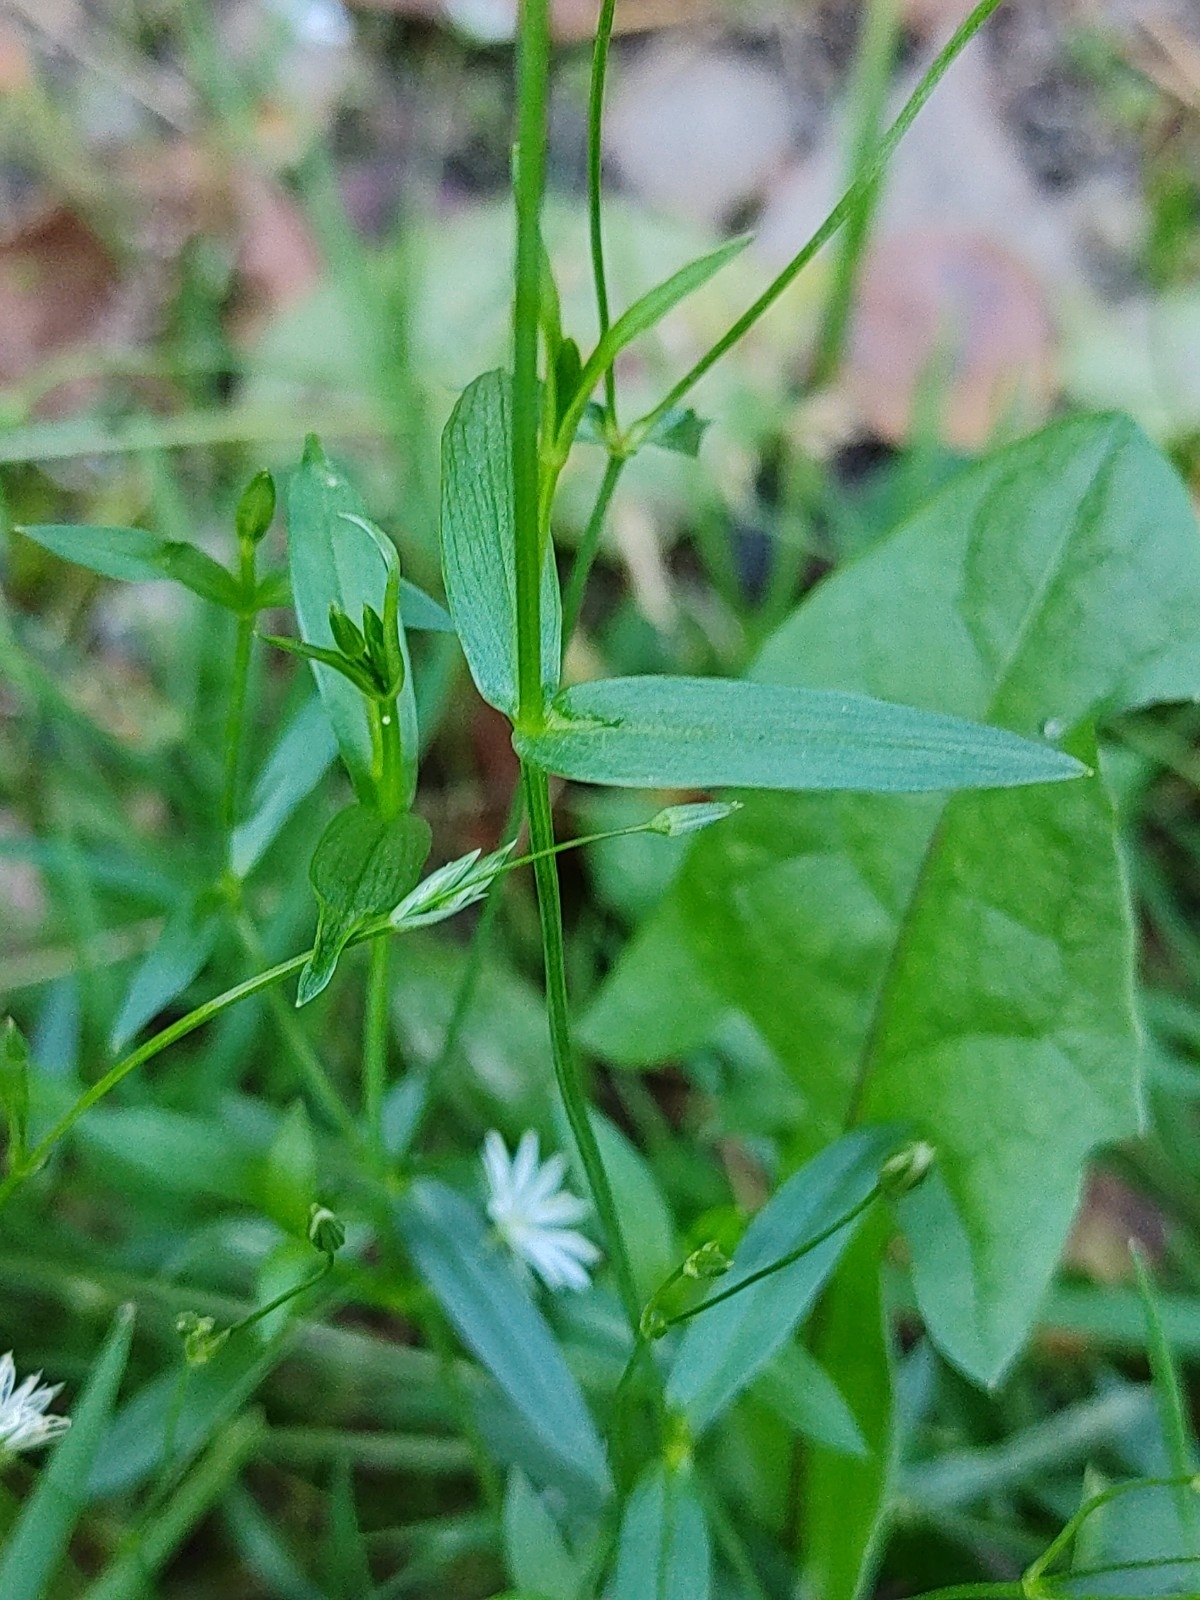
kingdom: Plantae
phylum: Tracheophyta
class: Magnoliopsida
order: Caryophyllales
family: Caryophyllaceae
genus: Stellaria
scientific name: Stellaria graminea
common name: Grass-like starwort
